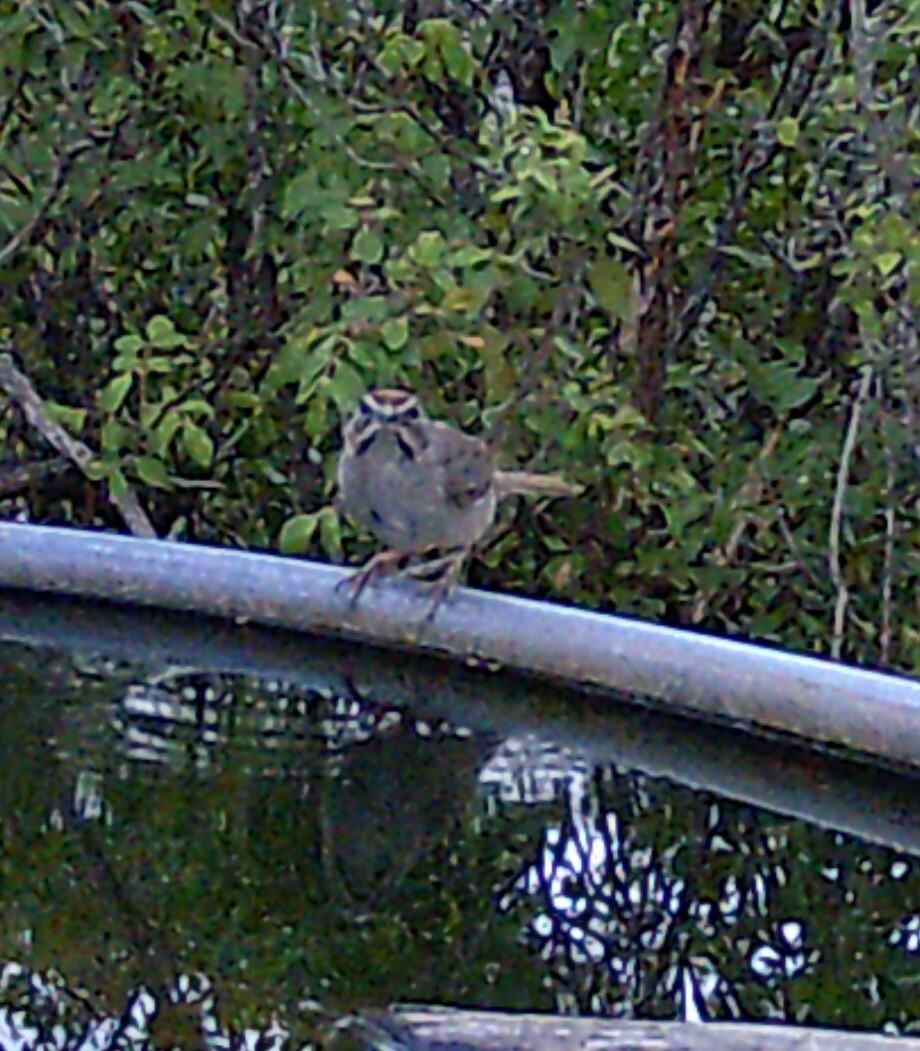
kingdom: Animalia
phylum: Chordata
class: Aves
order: Passeriformes
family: Passerellidae
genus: Aimophila
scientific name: Aimophila ruficeps
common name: Rufous-crowned sparrow
